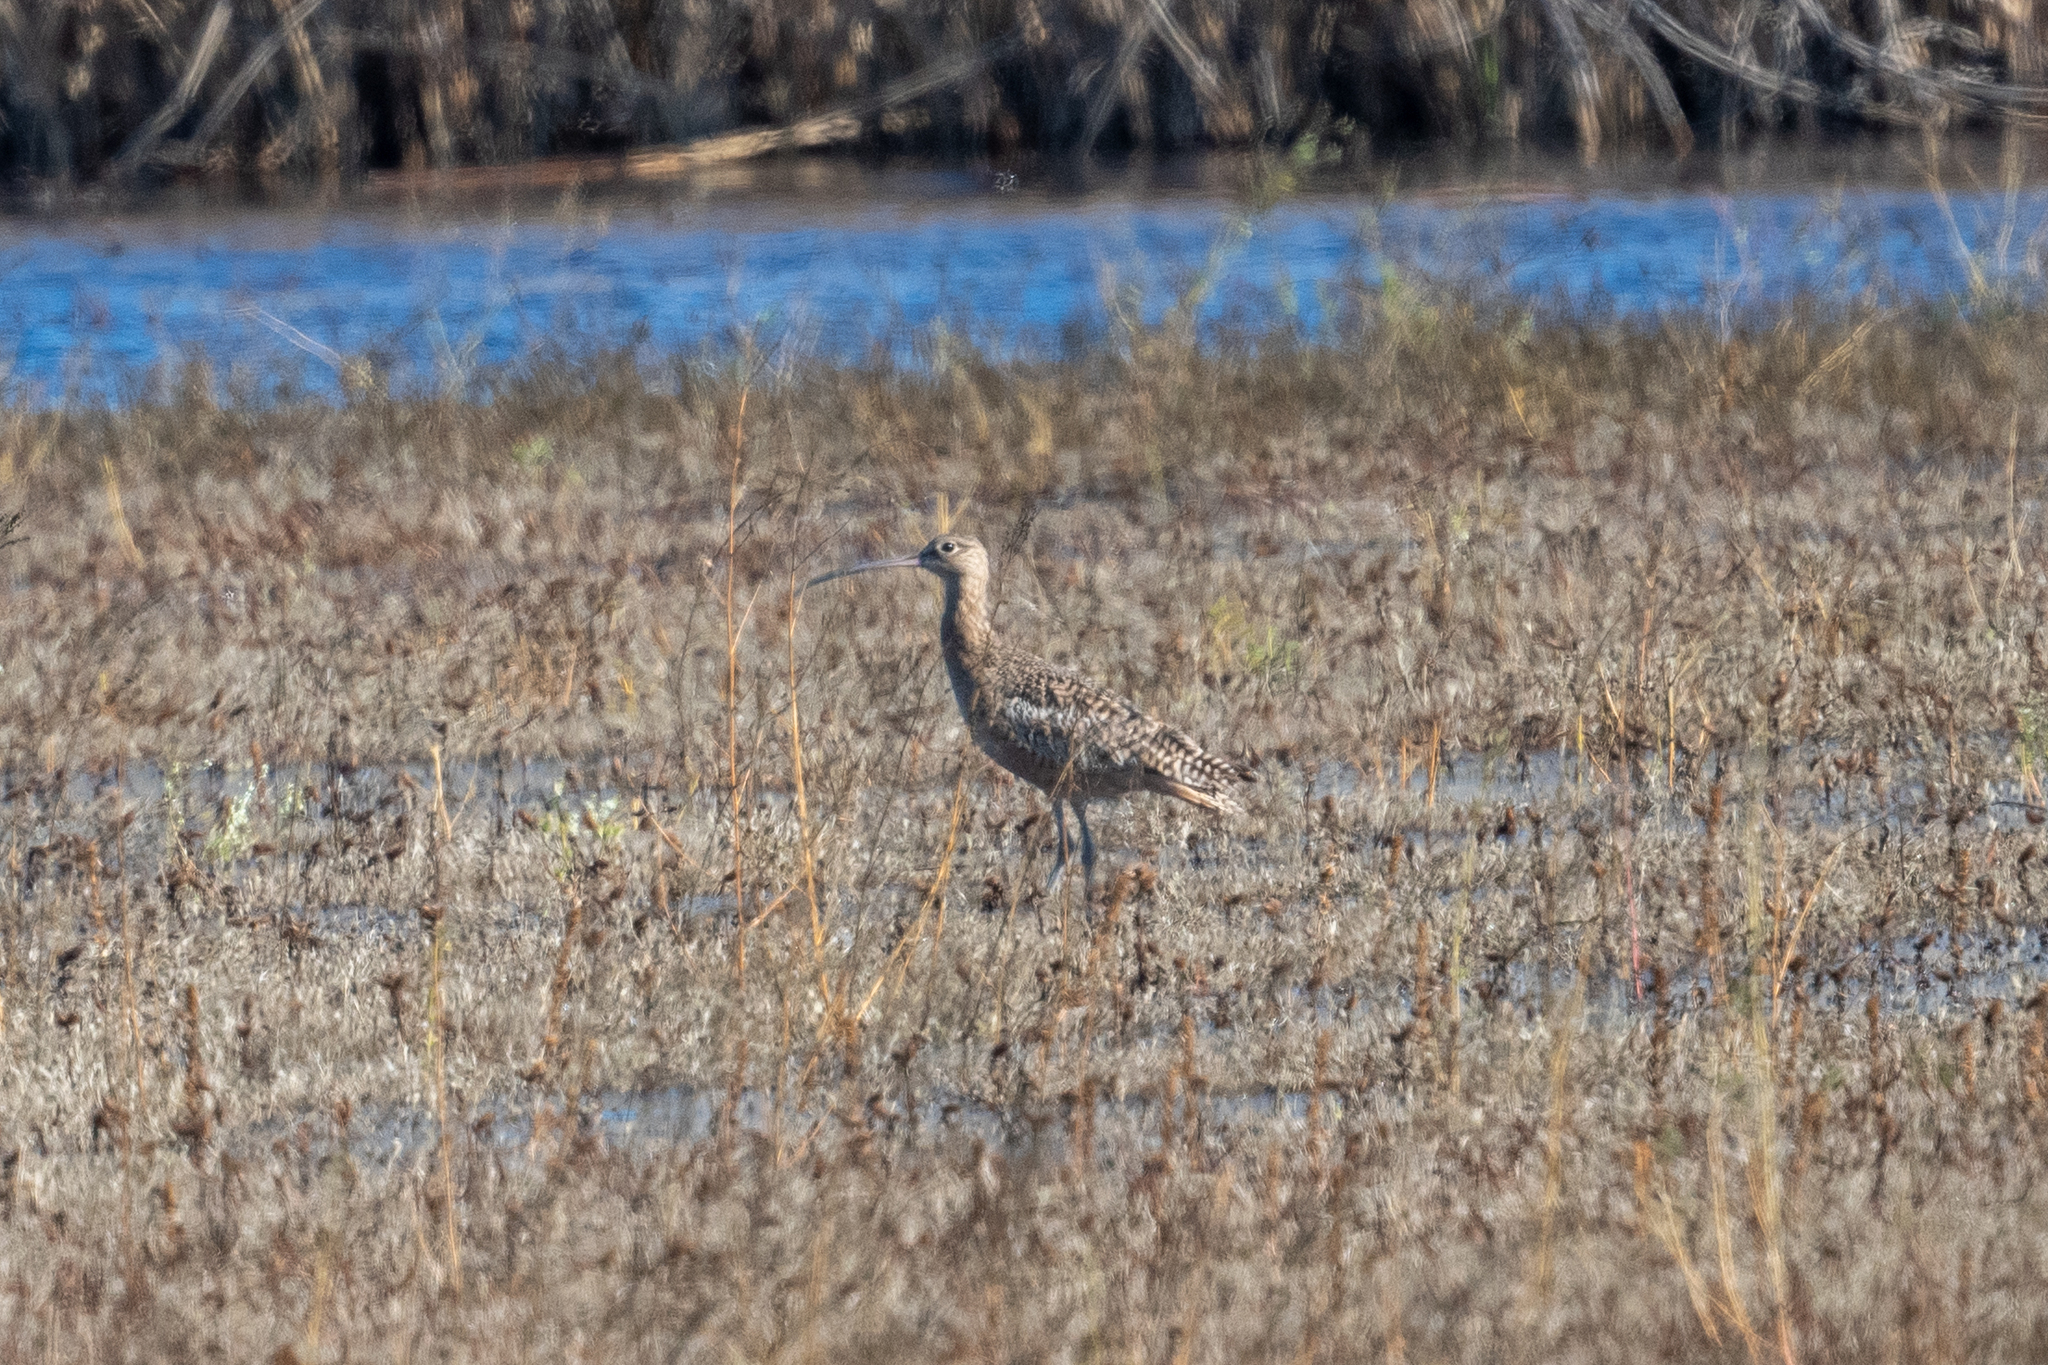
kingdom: Animalia
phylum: Chordata
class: Aves
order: Charadriiformes
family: Scolopacidae
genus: Numenius
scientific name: Numenius americanus
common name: Long-billed curlew
